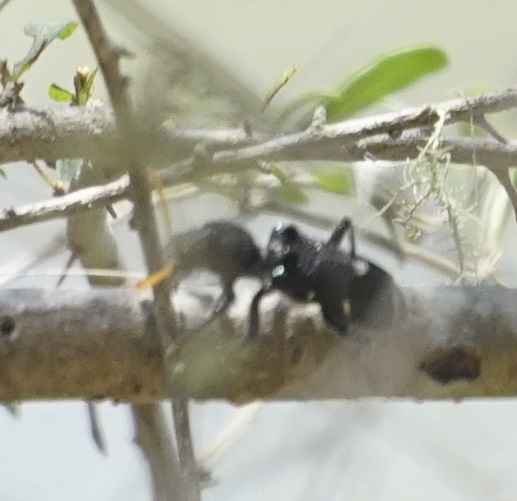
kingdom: Animalia
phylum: Arthropoda
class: Insecta
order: Coleoptera
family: Cleridae
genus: Trogodendron
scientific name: Trogodendron fasiculatum
